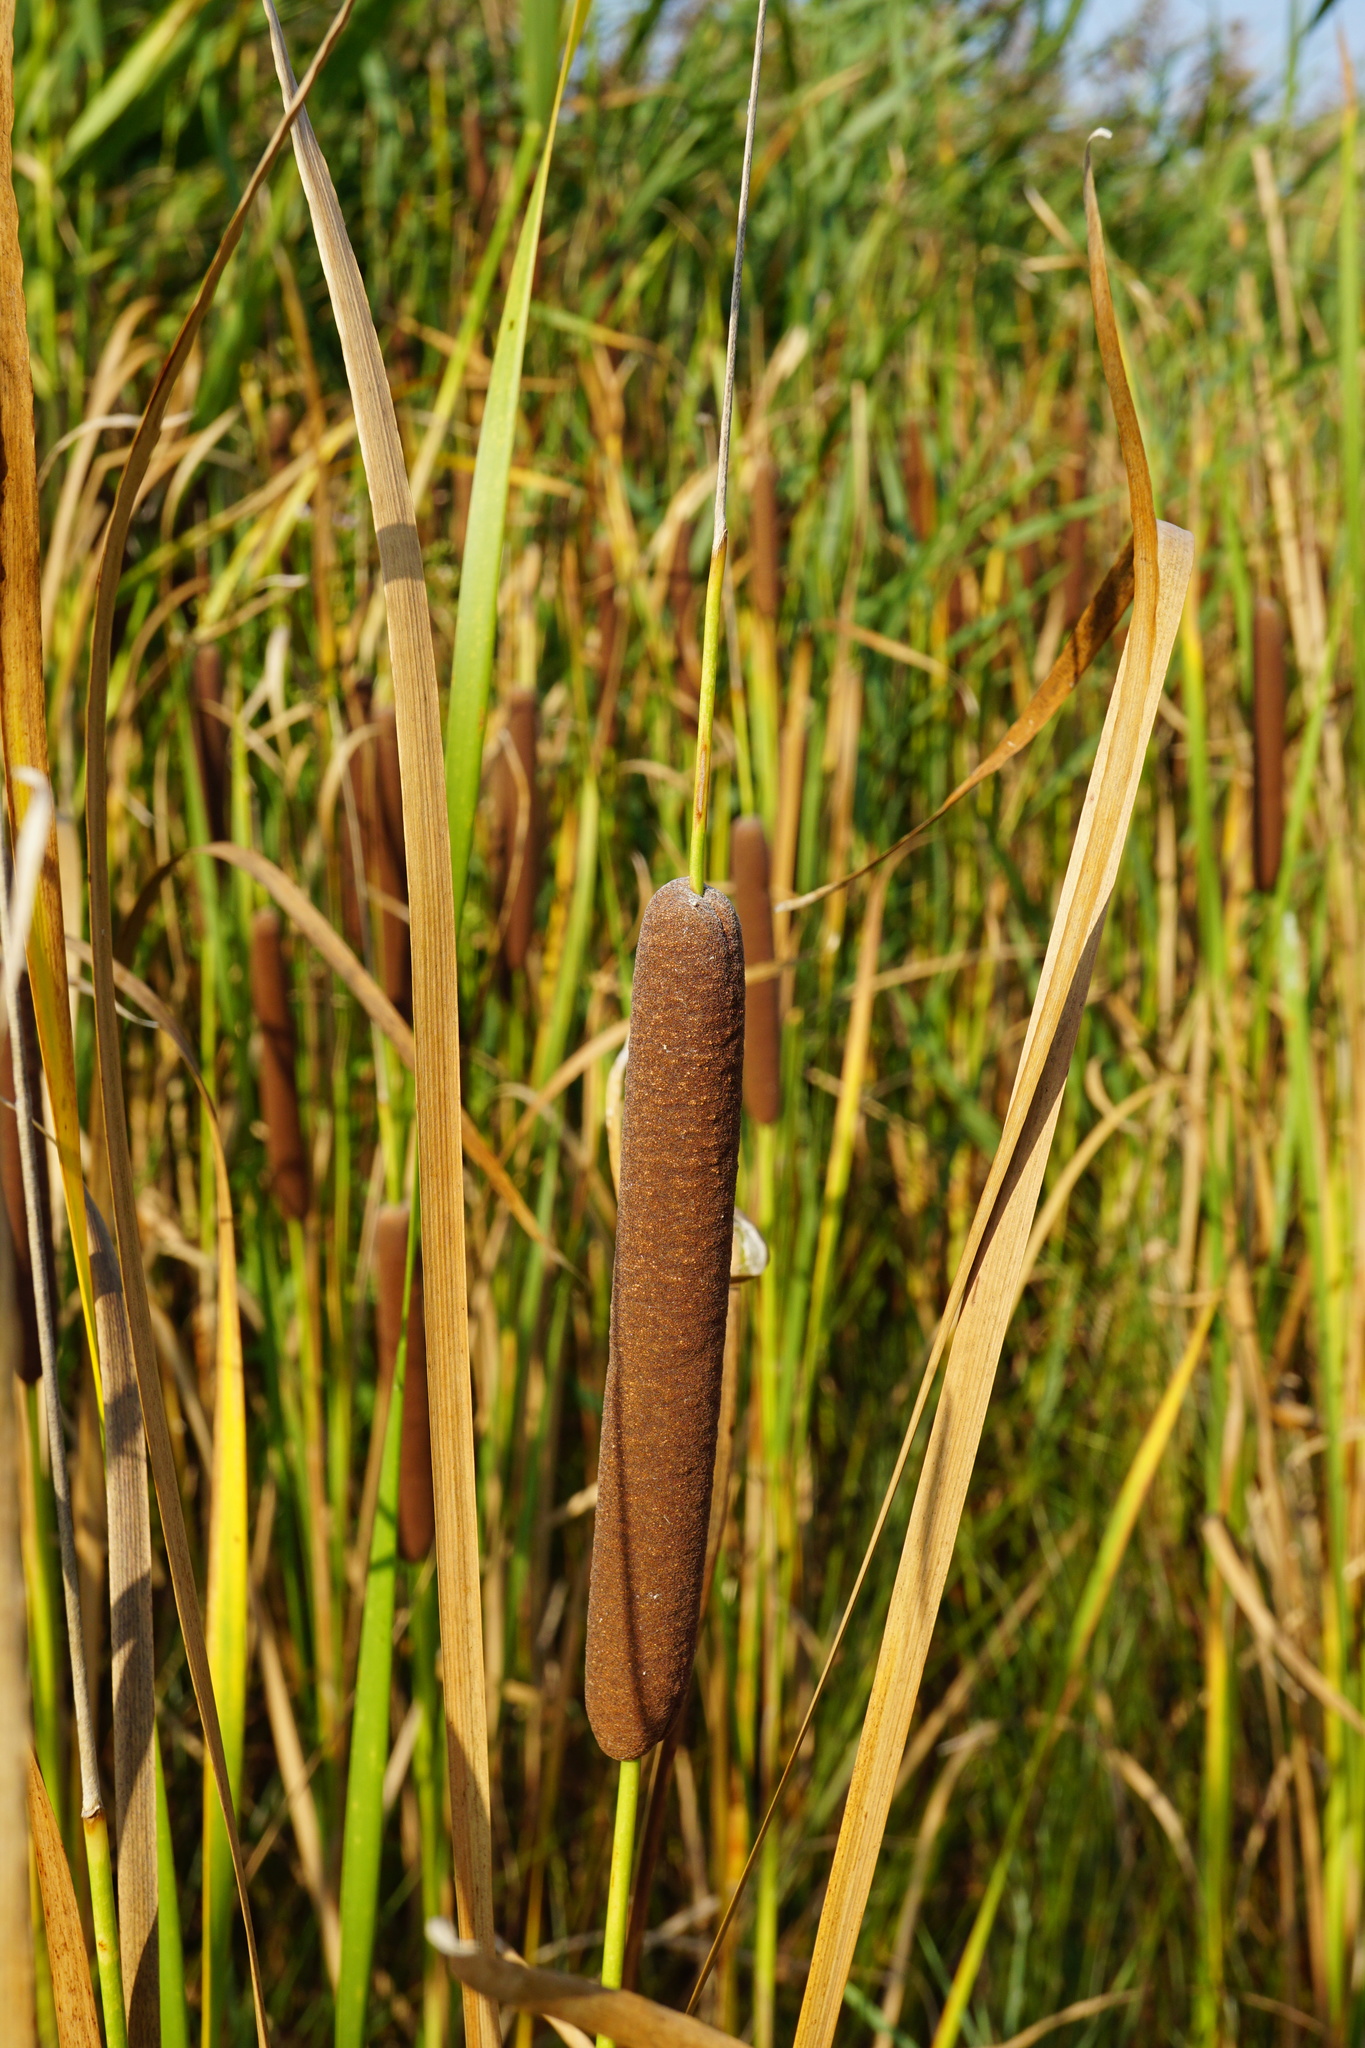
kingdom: Plantae
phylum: Tracheophyta
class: Liliopsida
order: Poales
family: Typhaceae
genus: Typha
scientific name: Typha angustifolia
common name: Lesser bulrush
